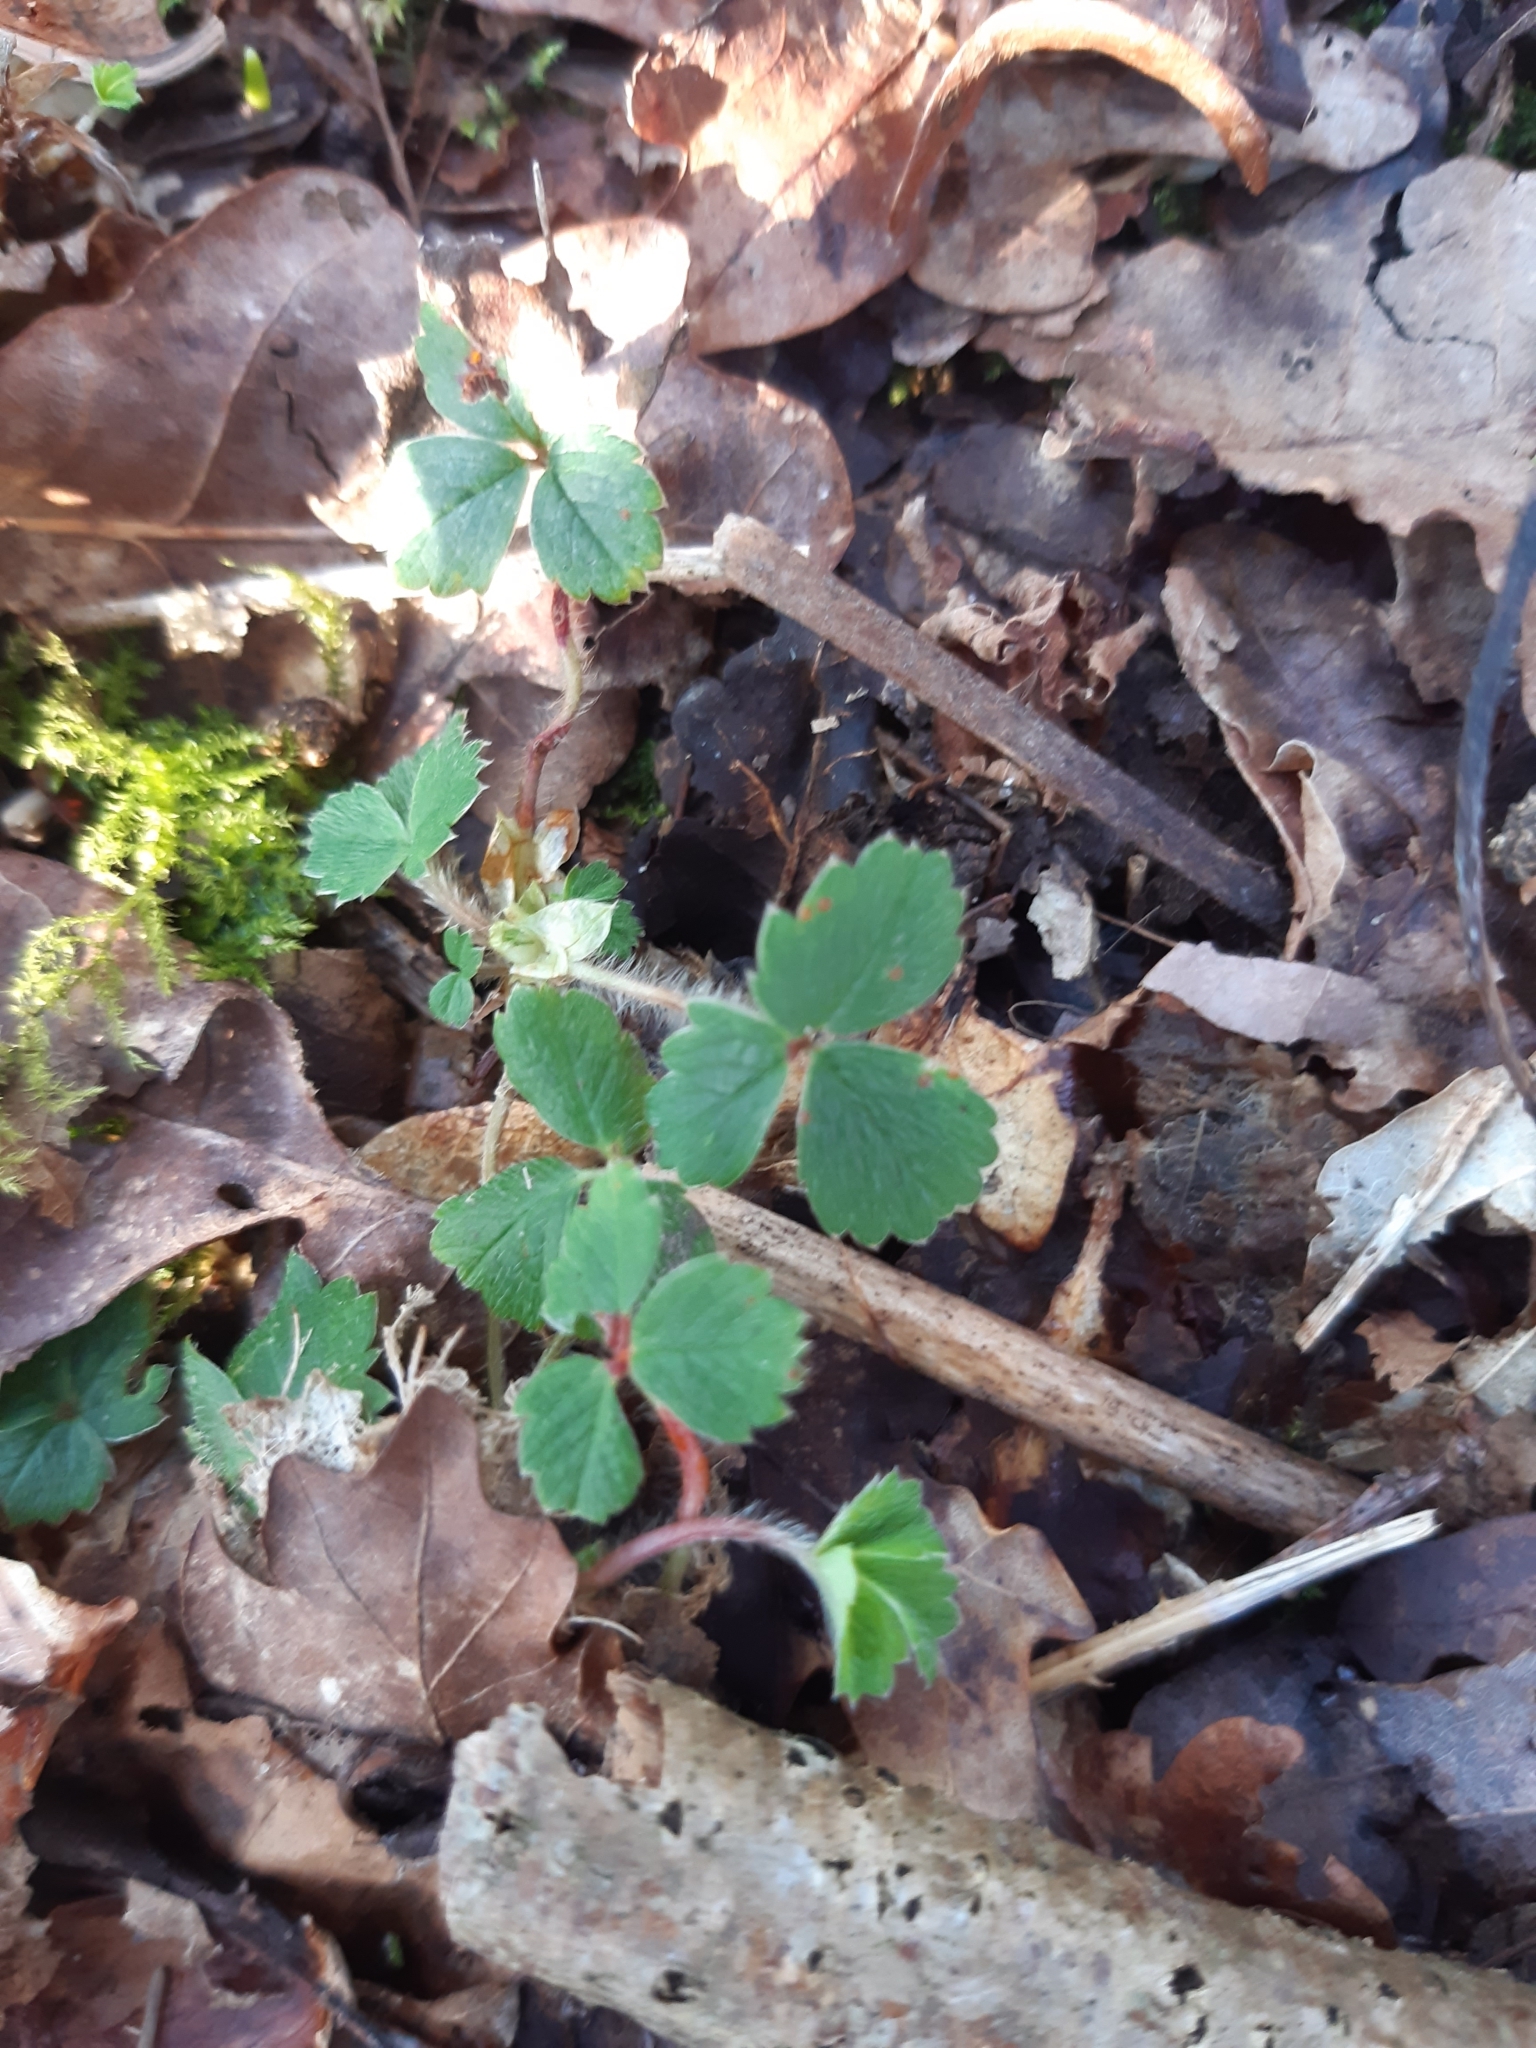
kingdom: Plantae
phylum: Tracheophyta
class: Magnoliopsida
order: Rosales
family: Rosaceae
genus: Potentilla
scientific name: Potentilla sterilis
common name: Barren strawberry
